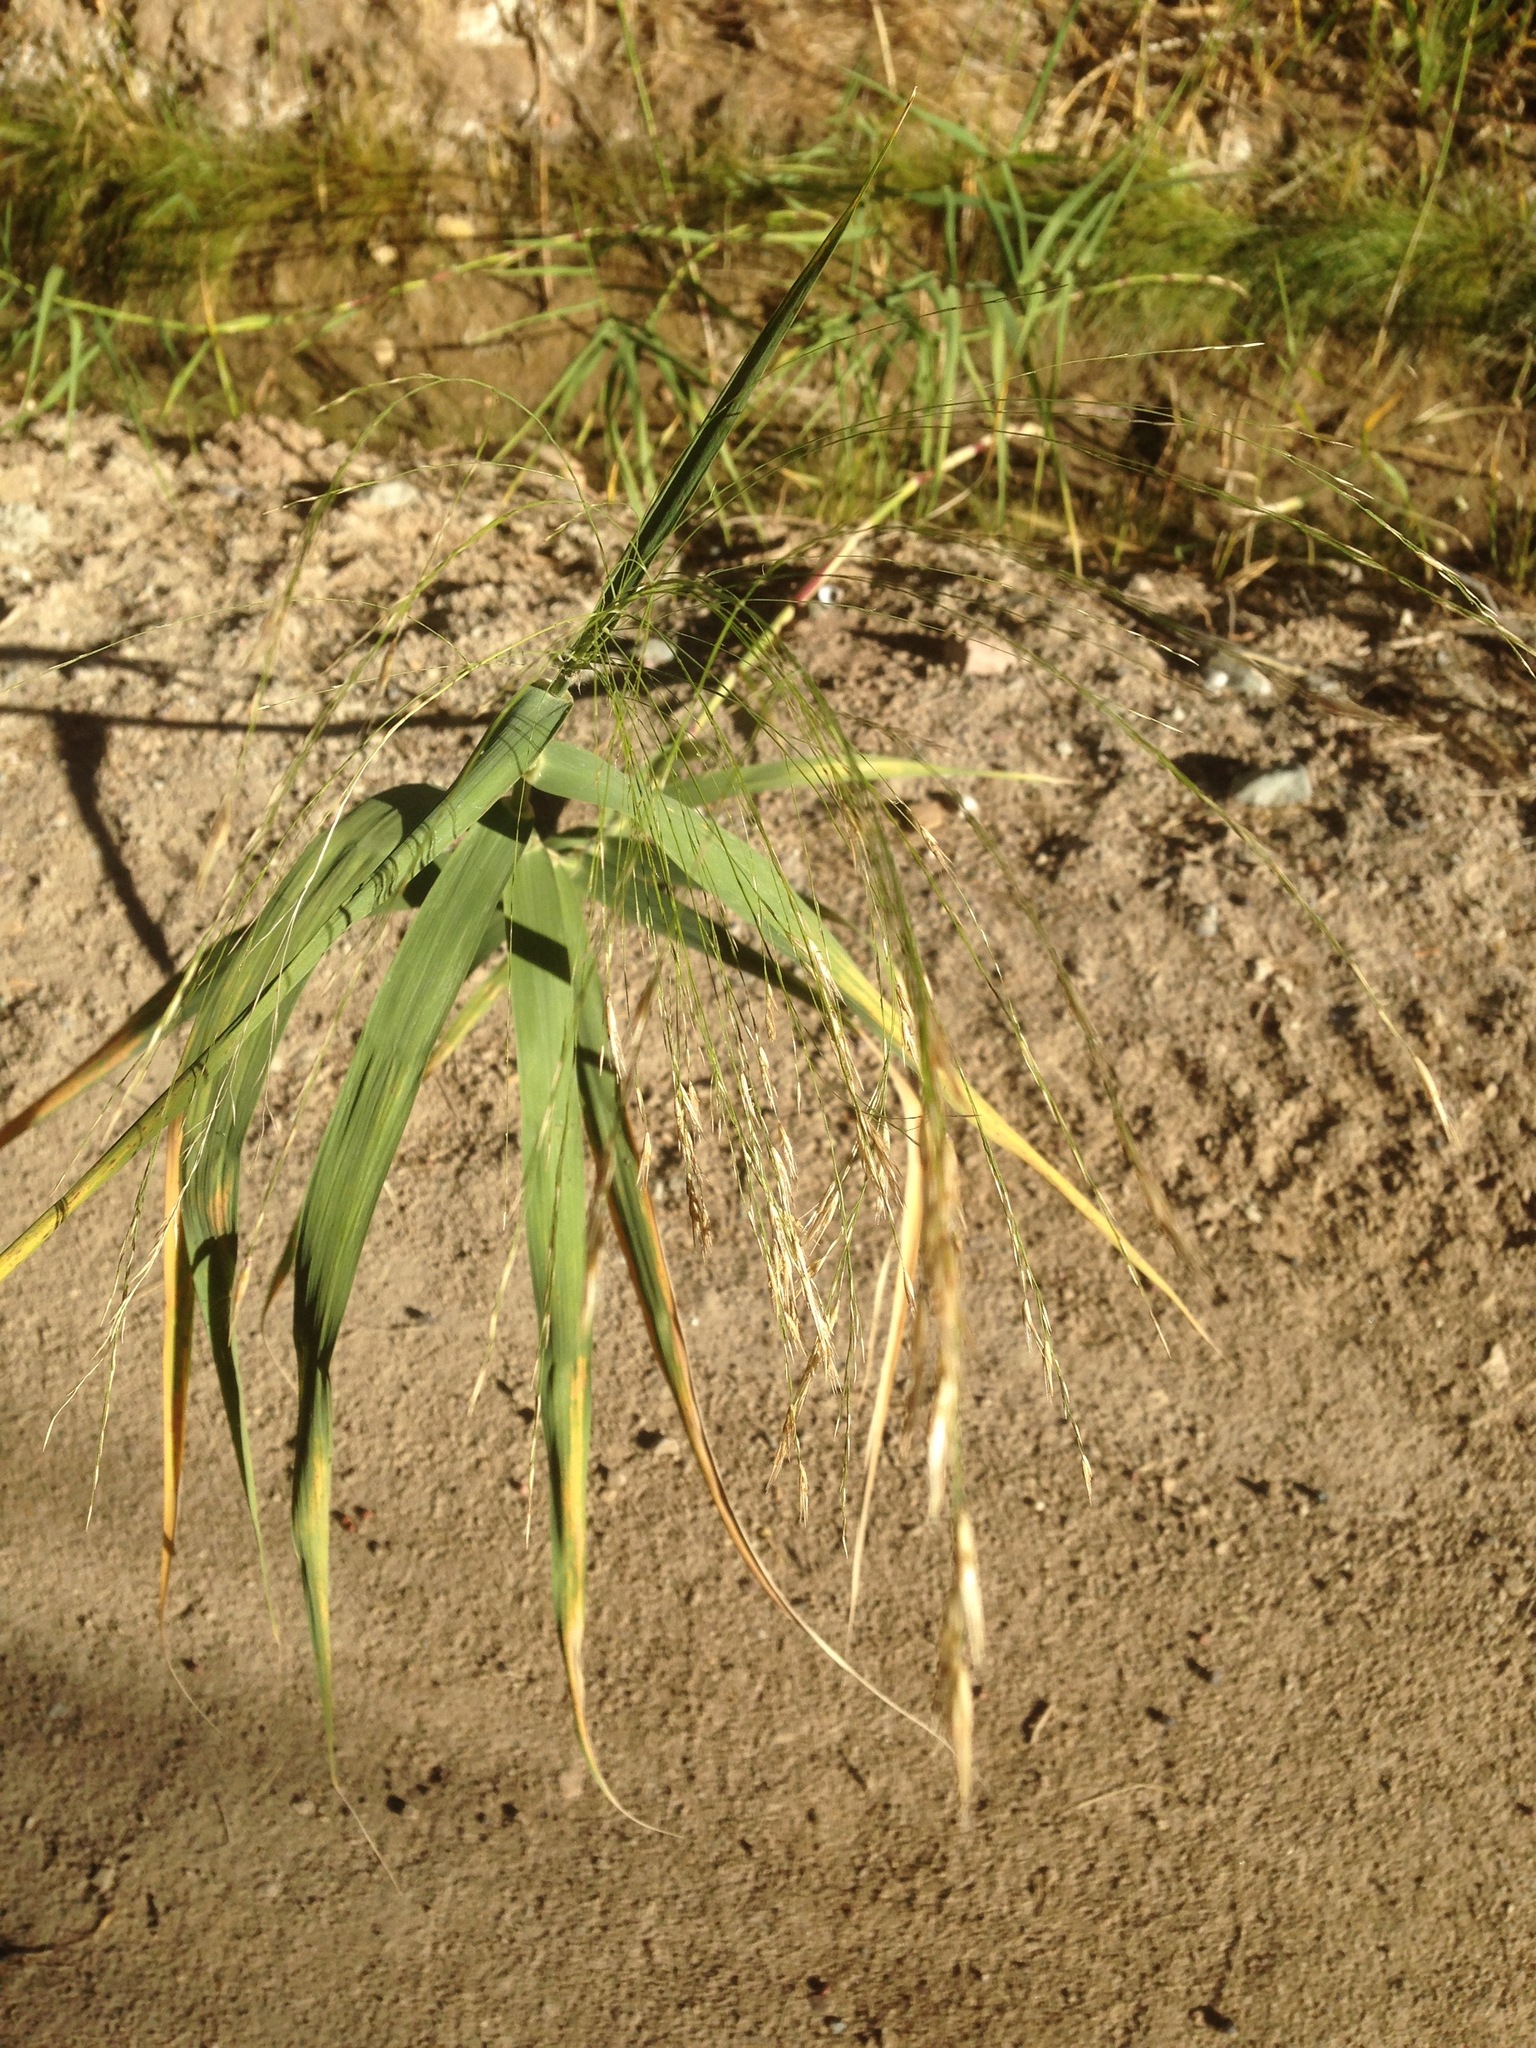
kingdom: Plantae
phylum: Tracheophyta
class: Liliopsida
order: Poales
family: Poaceae
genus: Phragmites
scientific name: Phragmites australis
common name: Common reed
